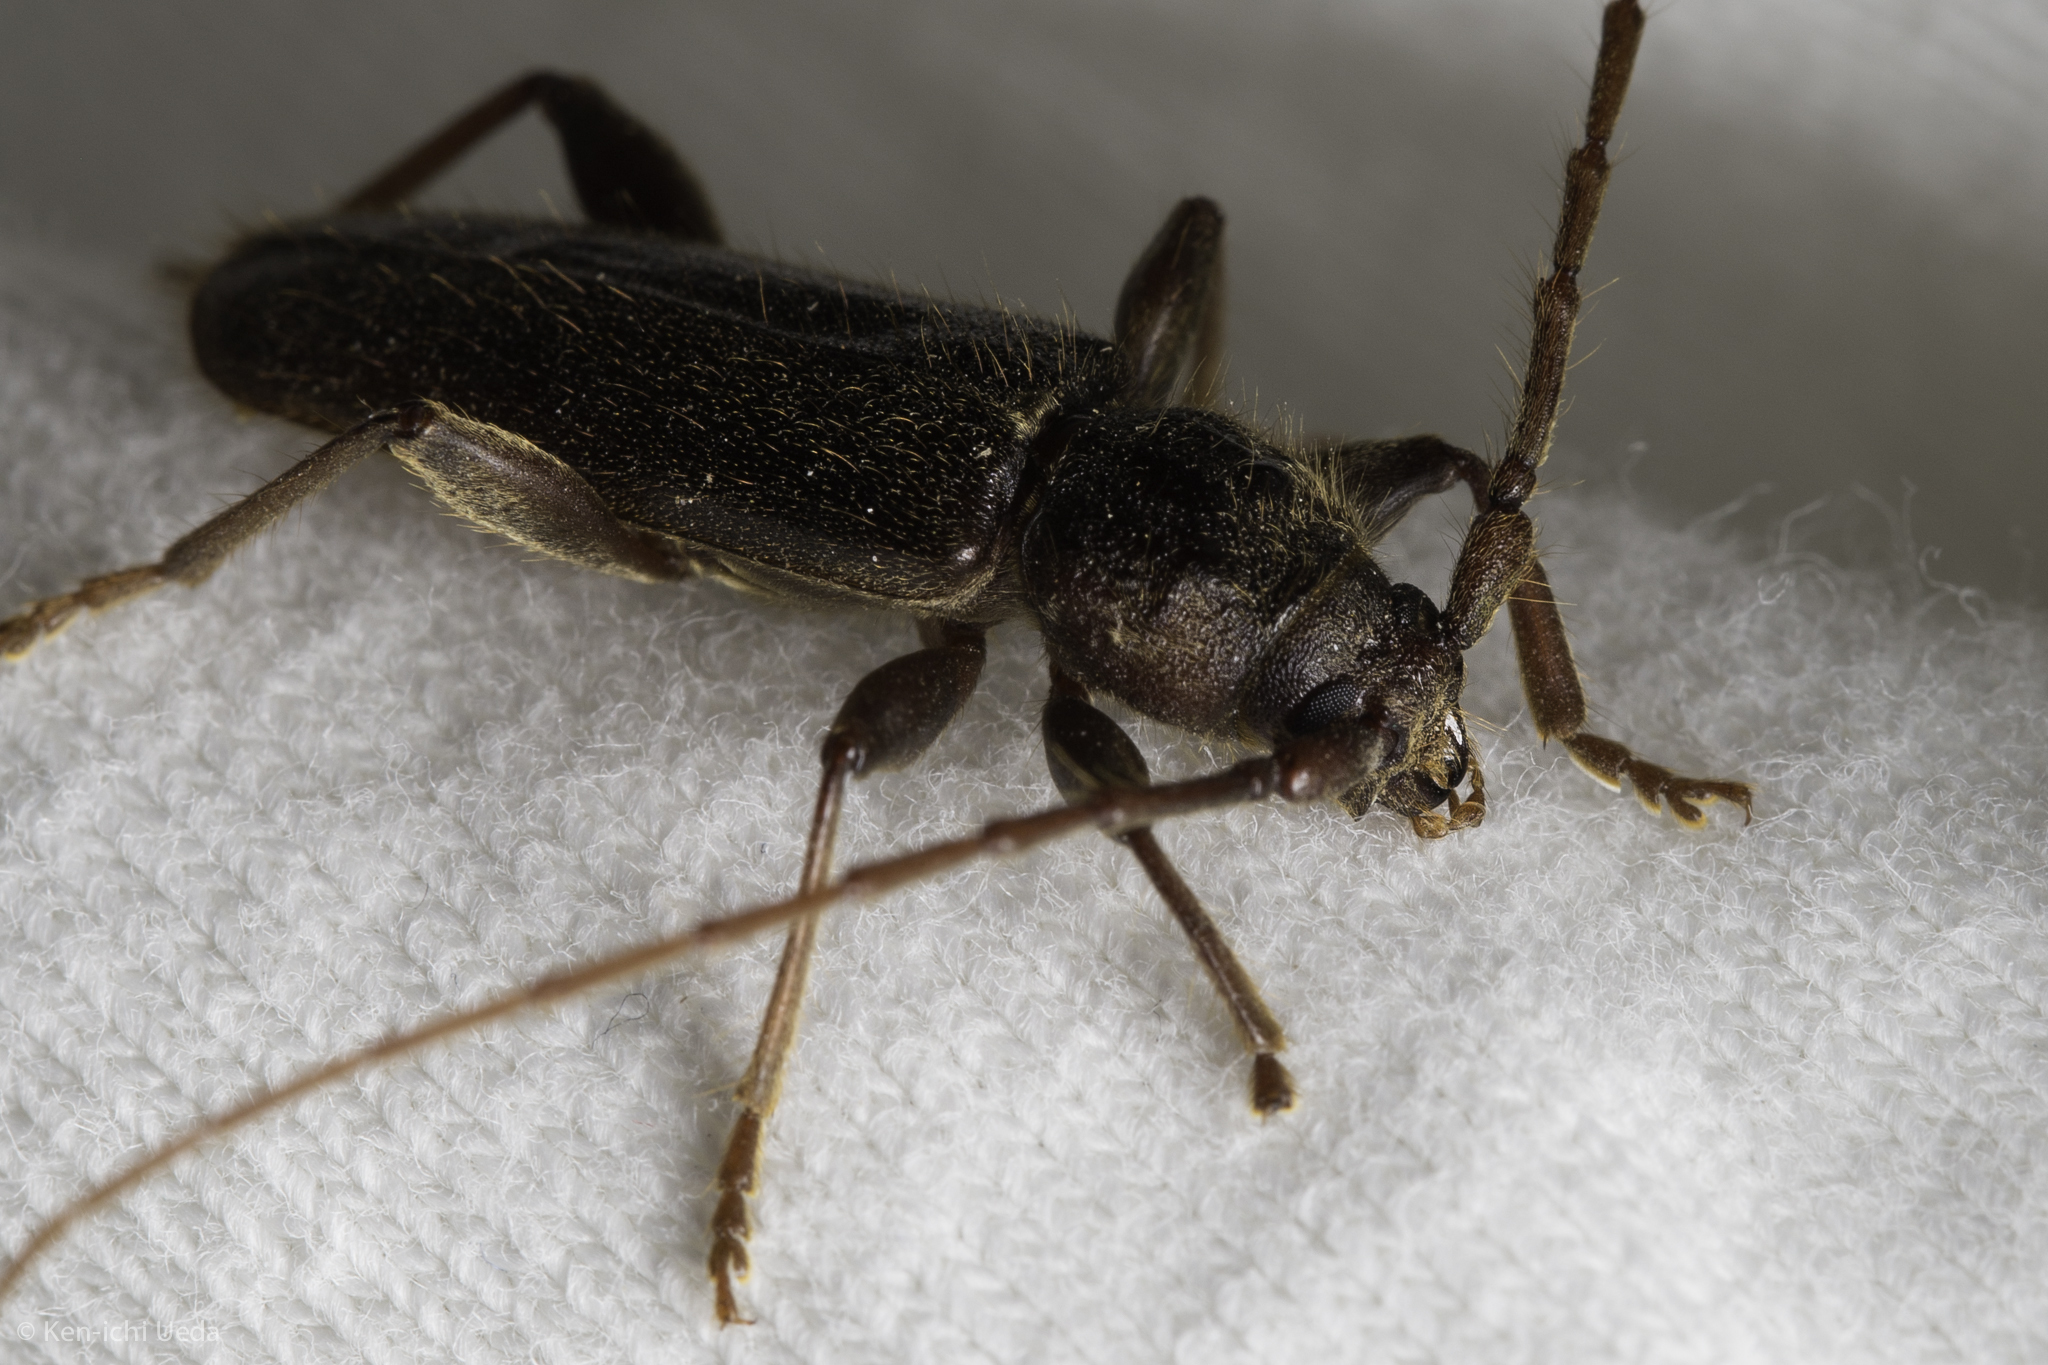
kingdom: Animalia
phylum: Arthropoda
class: Insecta
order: Coleoptera
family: Cerambycidae
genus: Meganoplium
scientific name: Meganoplium imbelle
